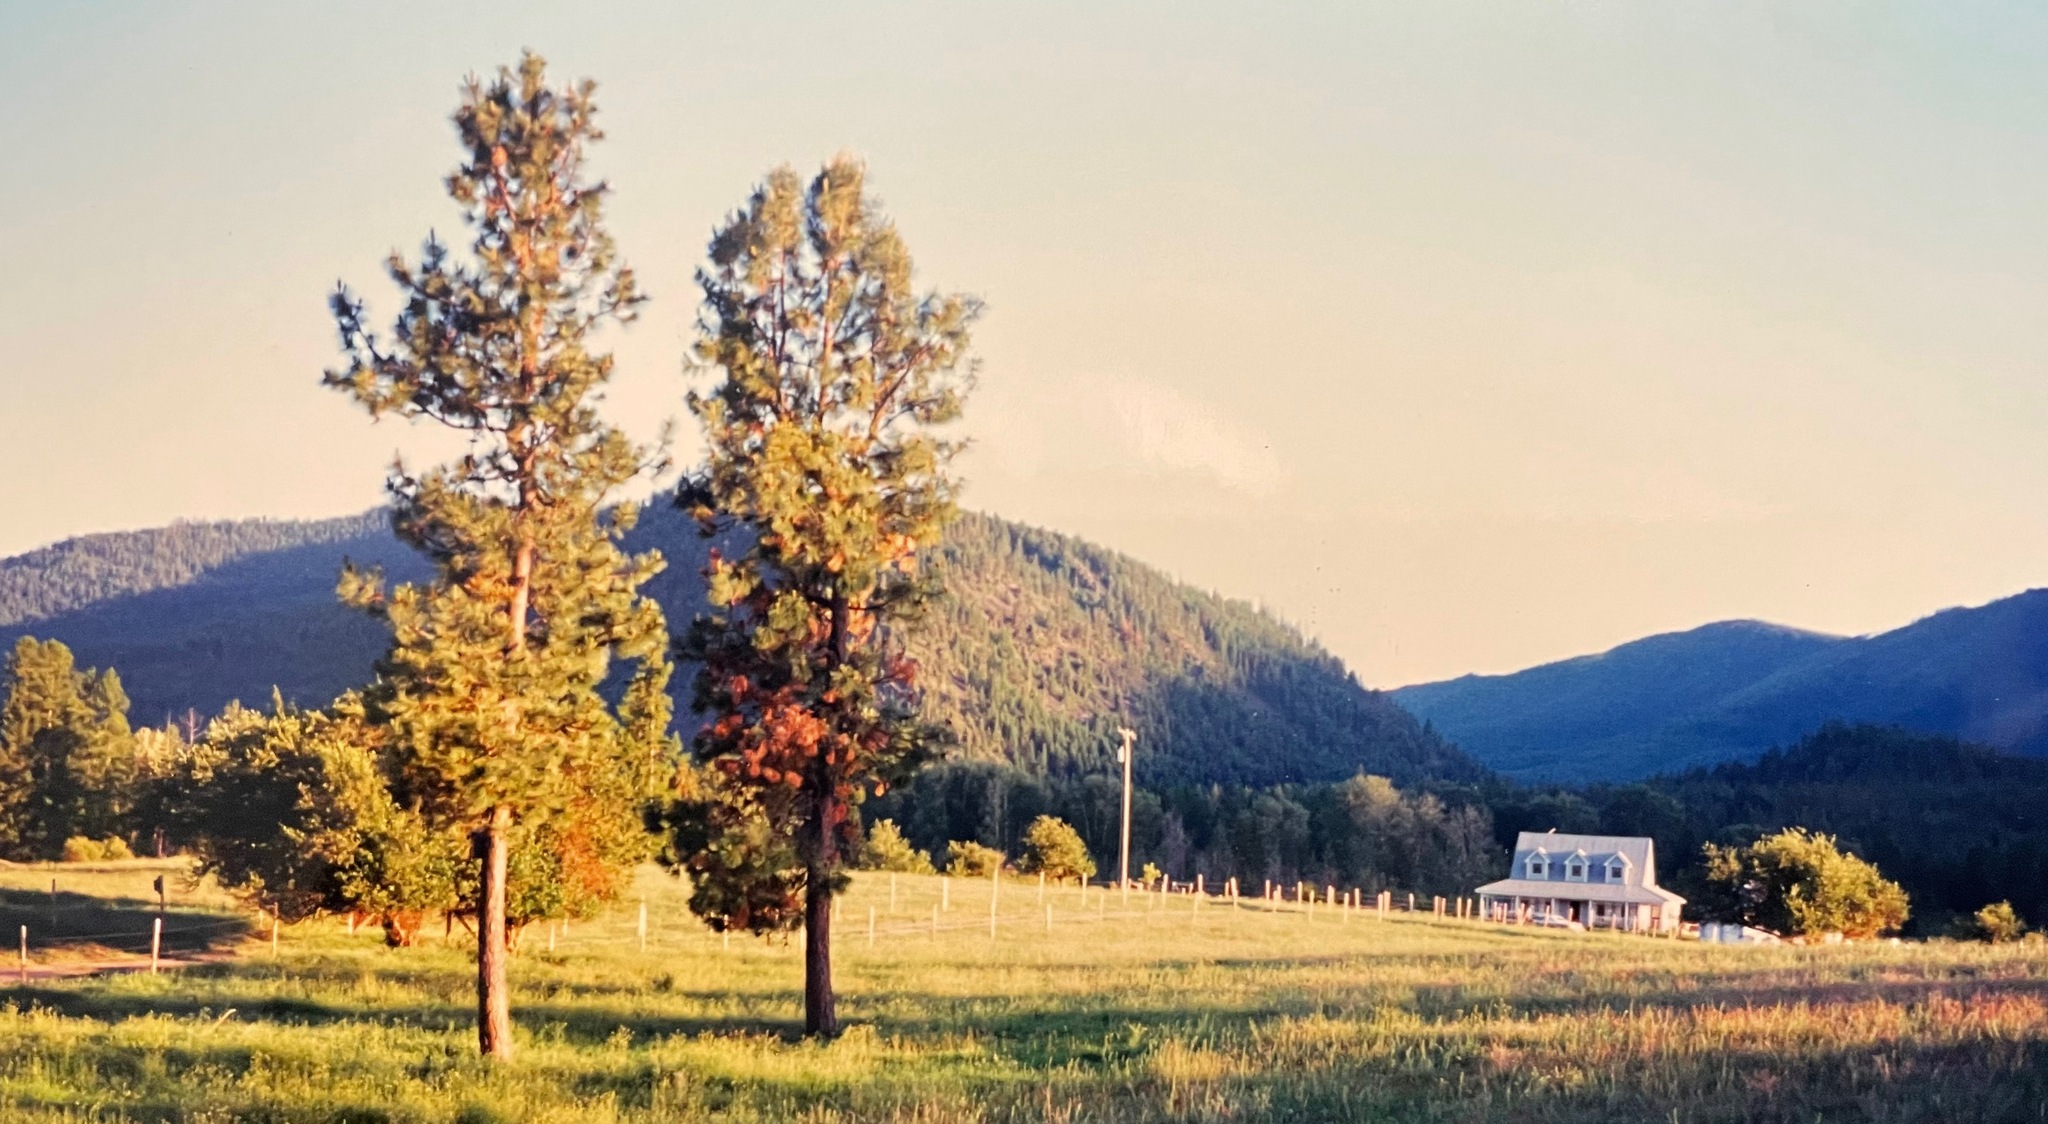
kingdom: Plantae
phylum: Tracheophyta
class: Pinopsida
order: Pinales
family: Pinaceae
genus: Pinus
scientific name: Pinus ponderosa
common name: Western yellow-pine
